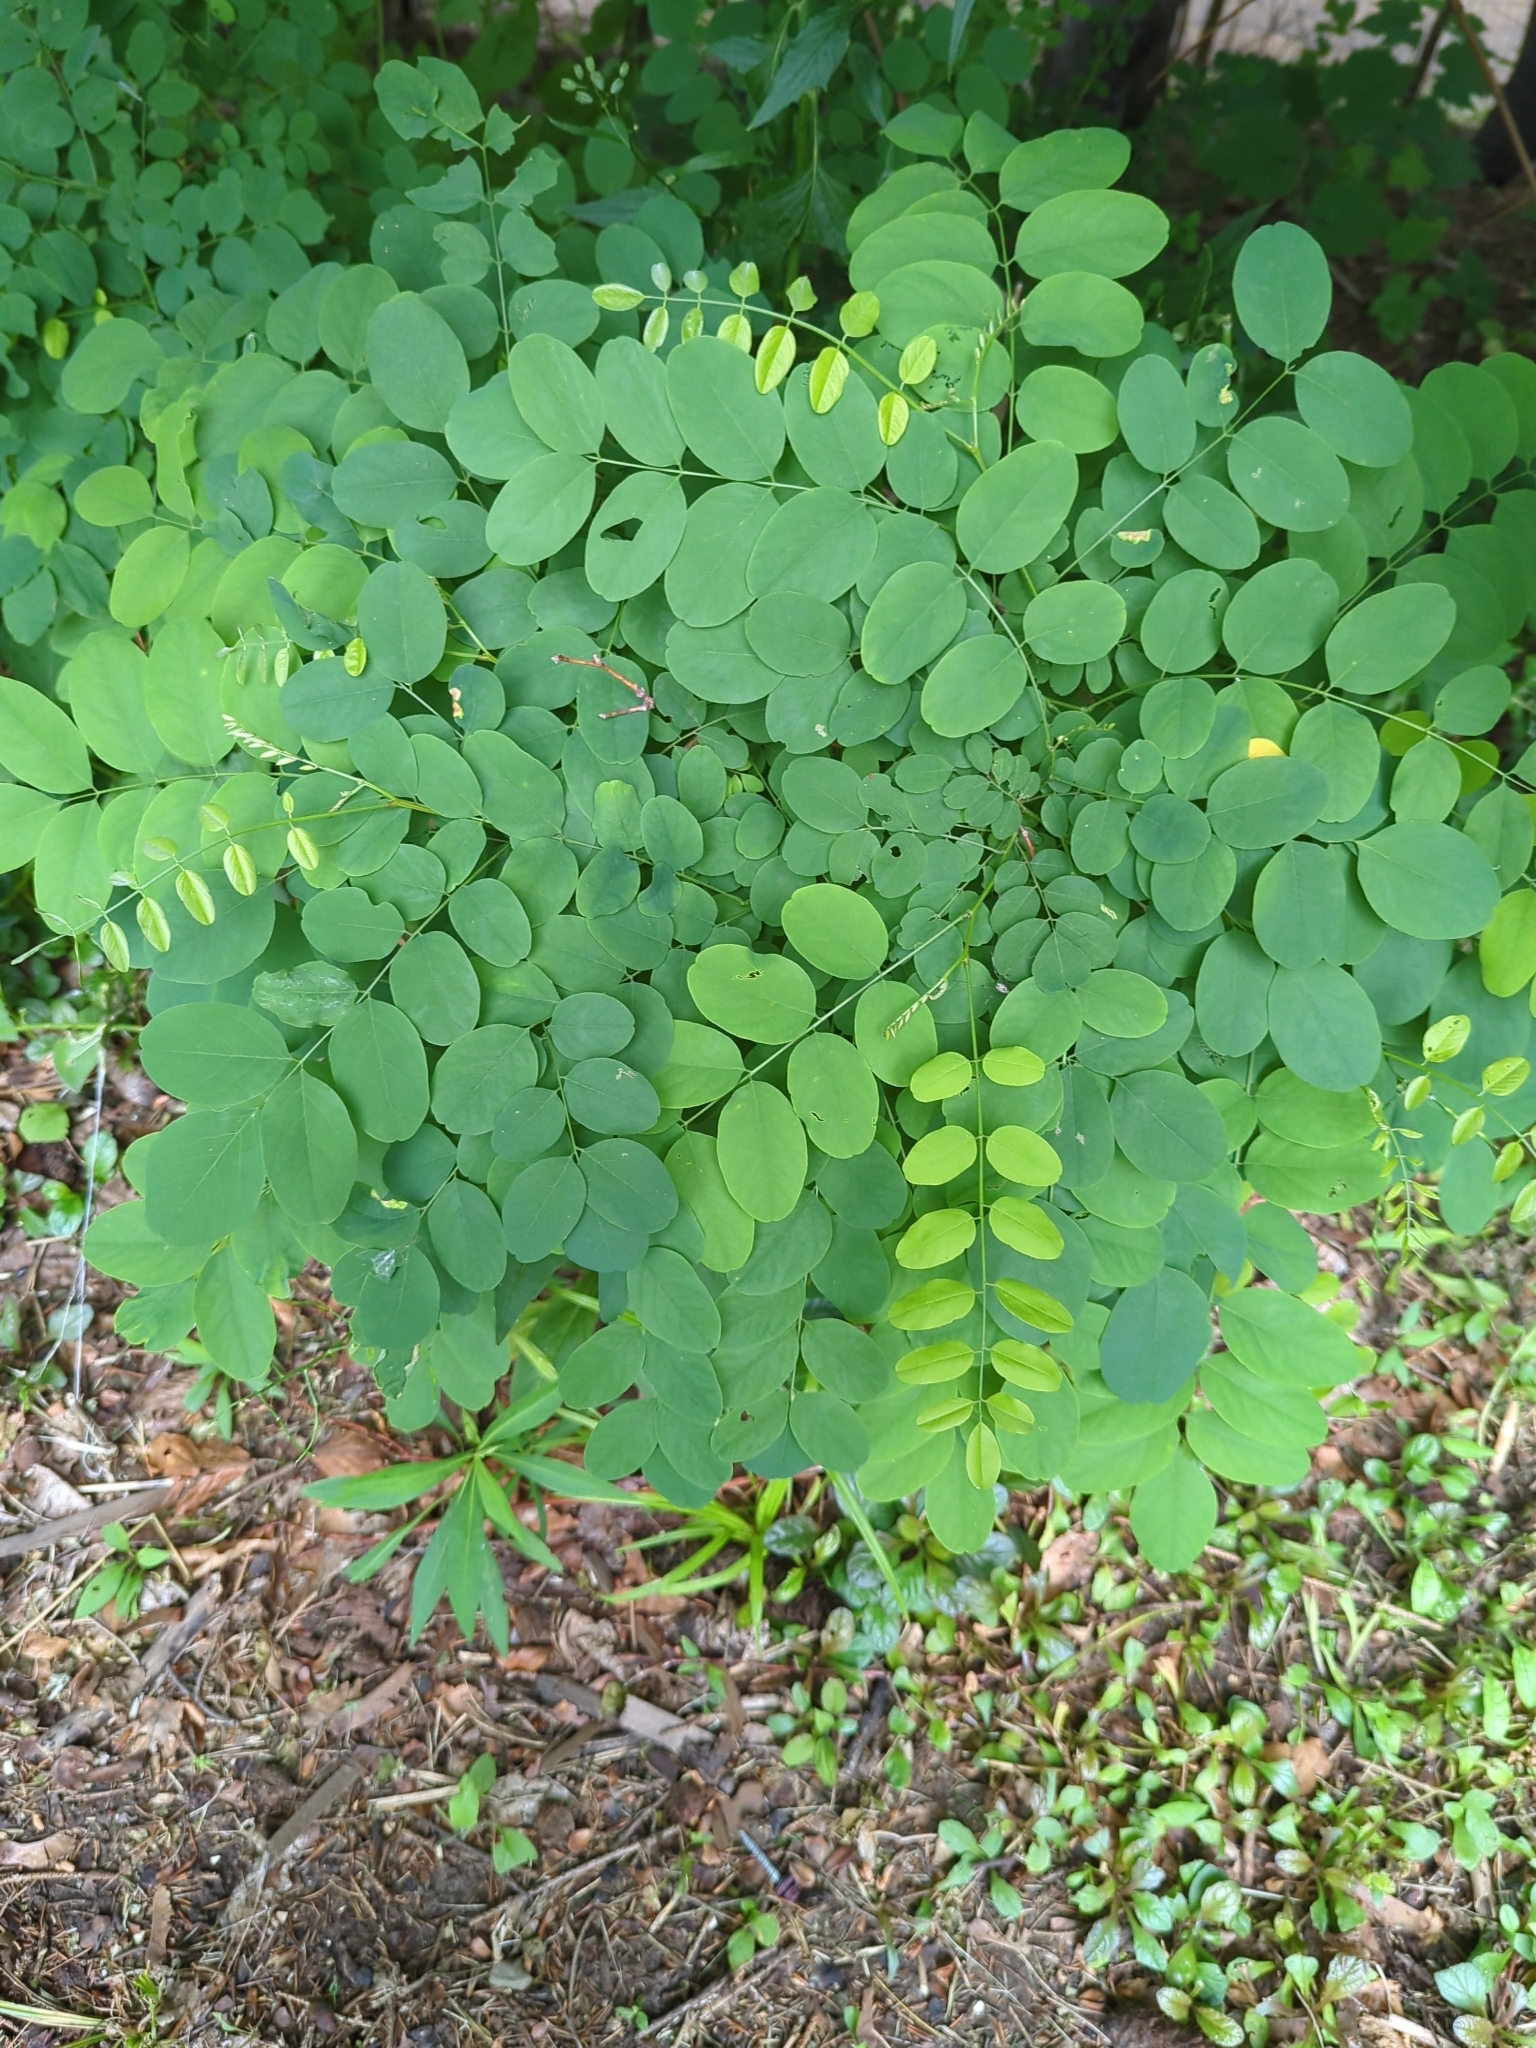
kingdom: Plantae
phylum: Tracheophyta
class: Magnoliopsida
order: Fabales
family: Fabaceae
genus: Robinia
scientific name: Robinia pseudoacacia
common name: Black locust
